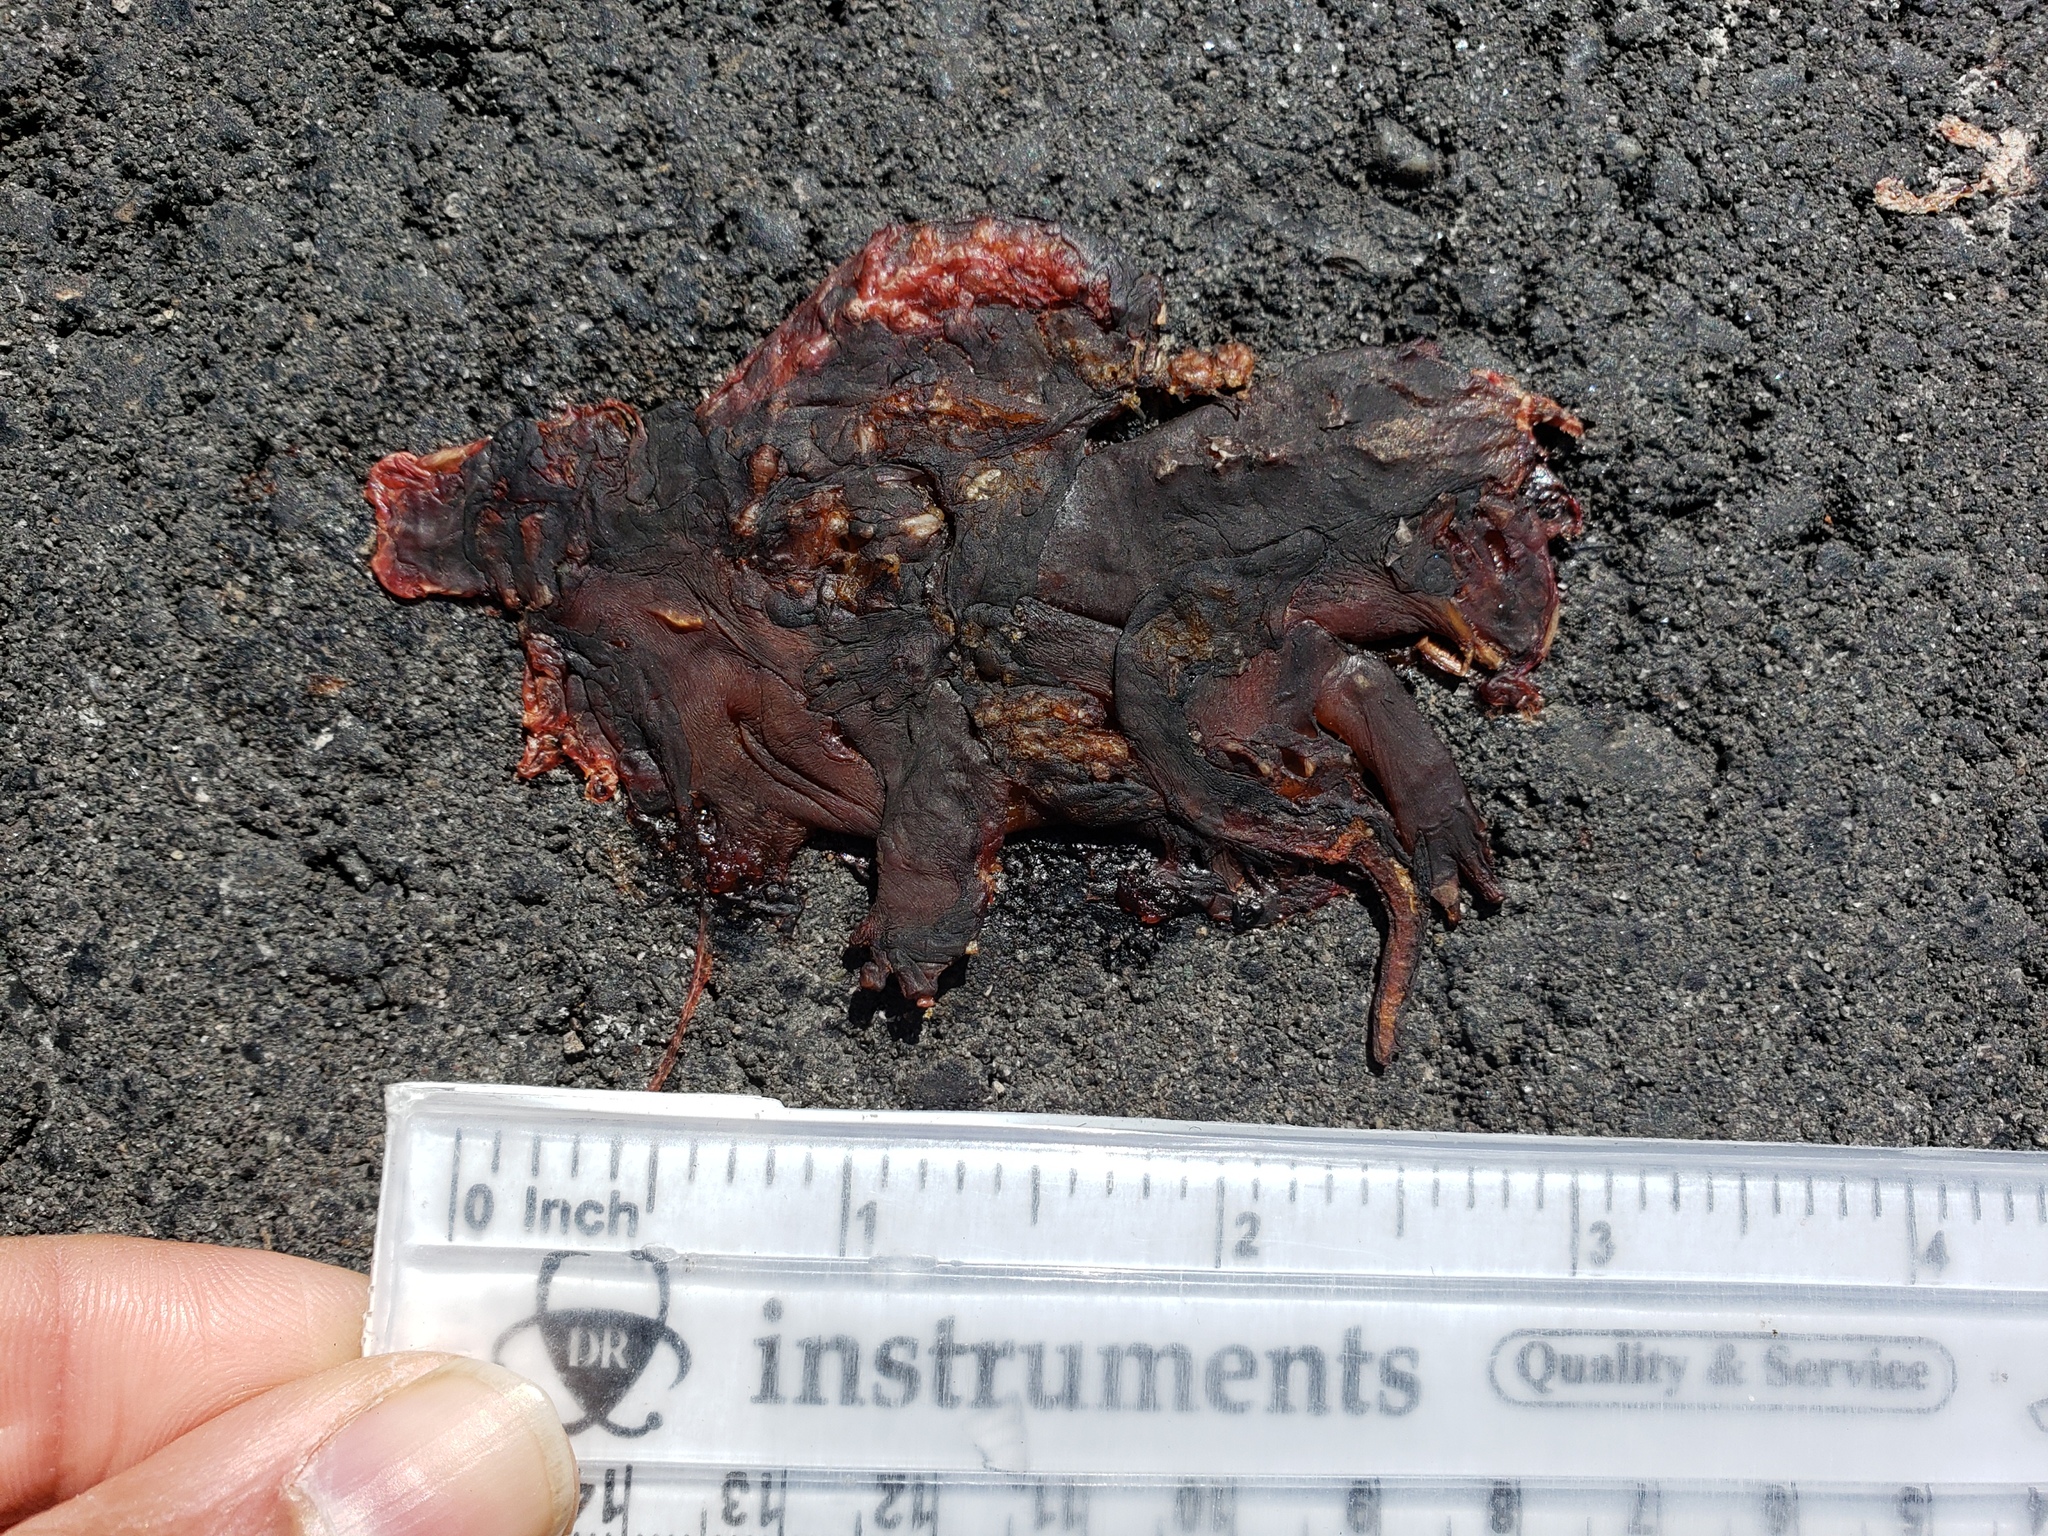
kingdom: Animalia
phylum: Chordata
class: Amphibia
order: Caudata
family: Salamandridae
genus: Taricha
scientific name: Taricha
